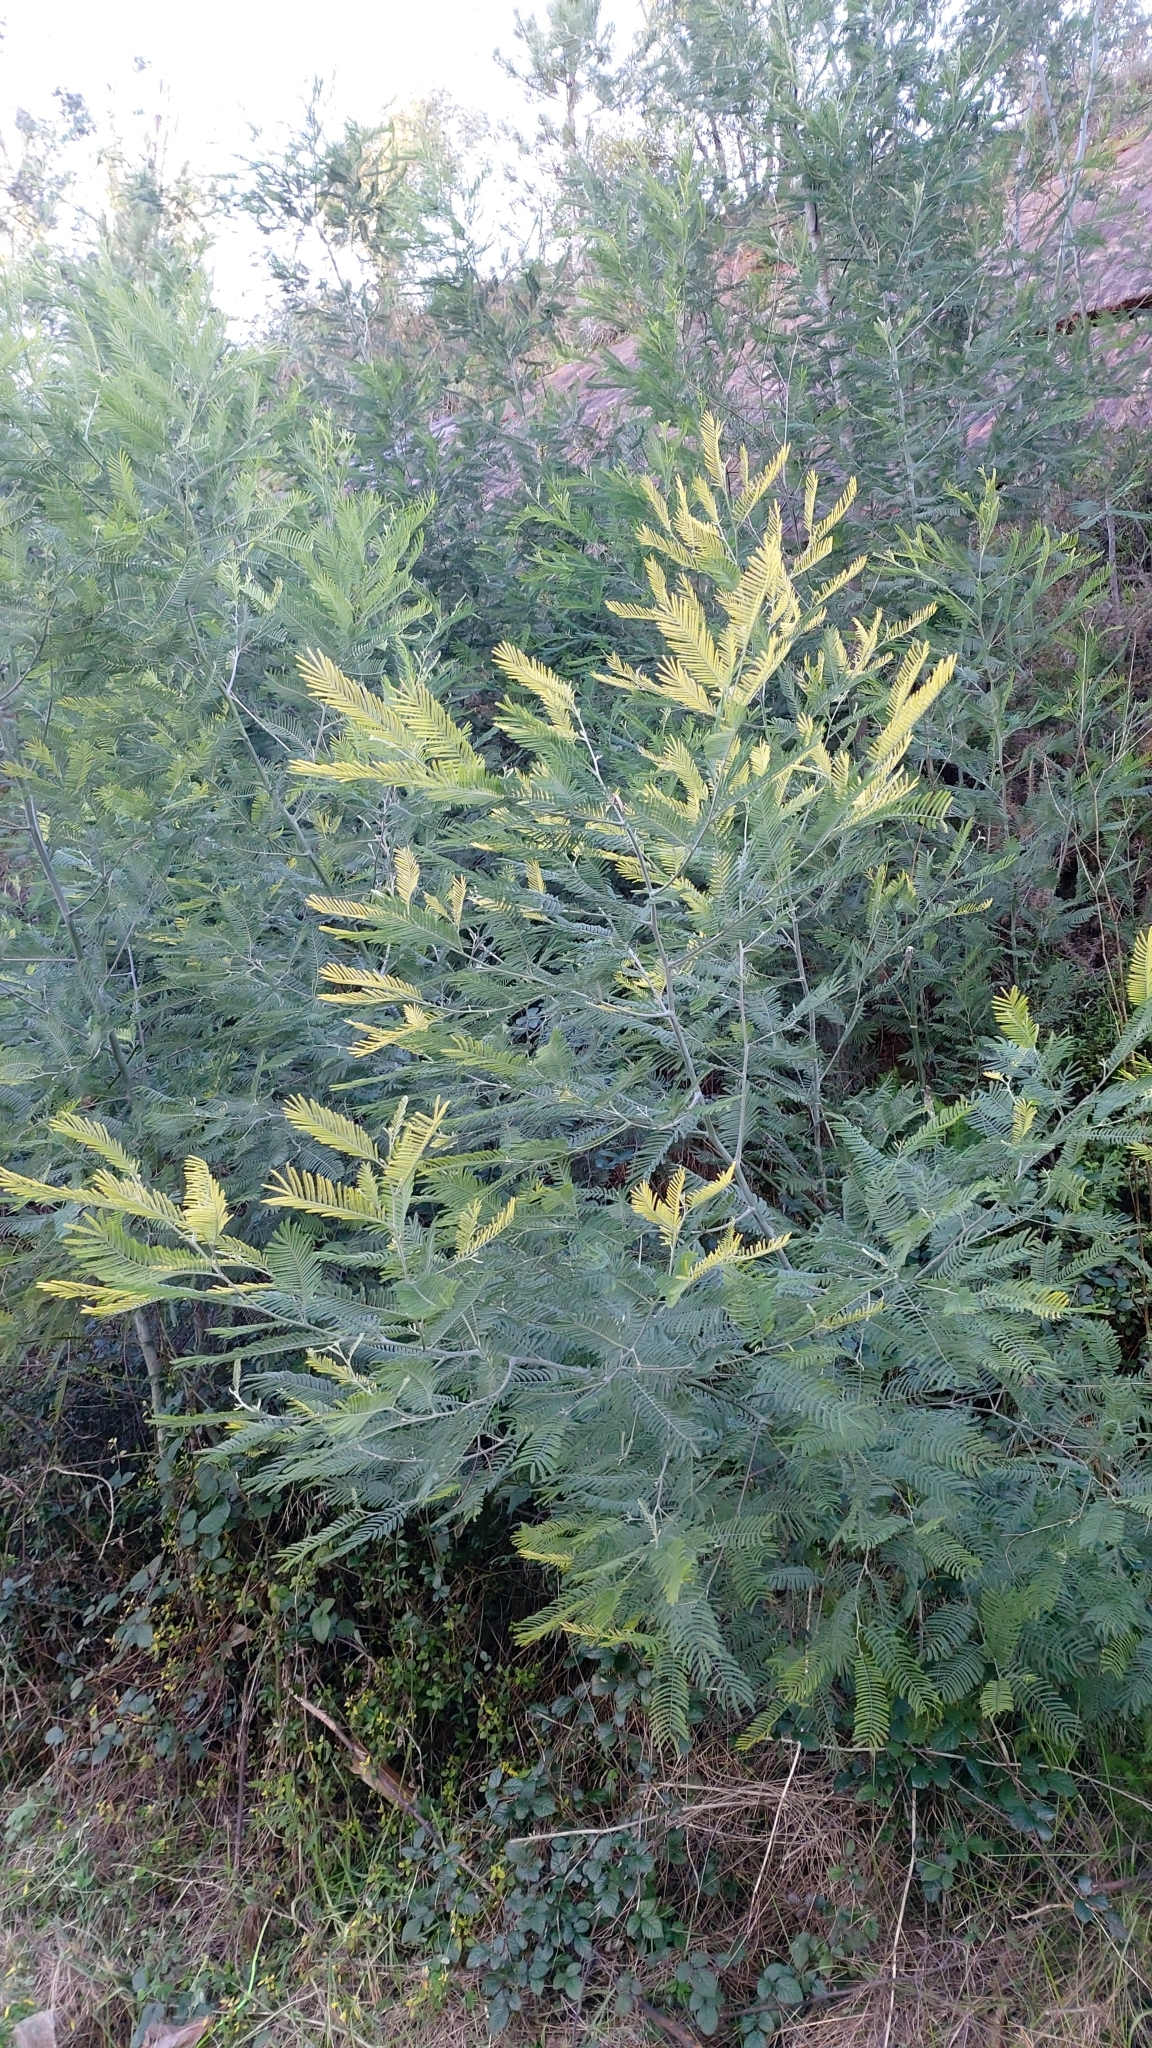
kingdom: Plantae
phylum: Tracheophyta
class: Magnoliopsida
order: Fabales
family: Fabaceae
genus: Acacia
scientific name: Acacia dealbata
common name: Silver wattle
